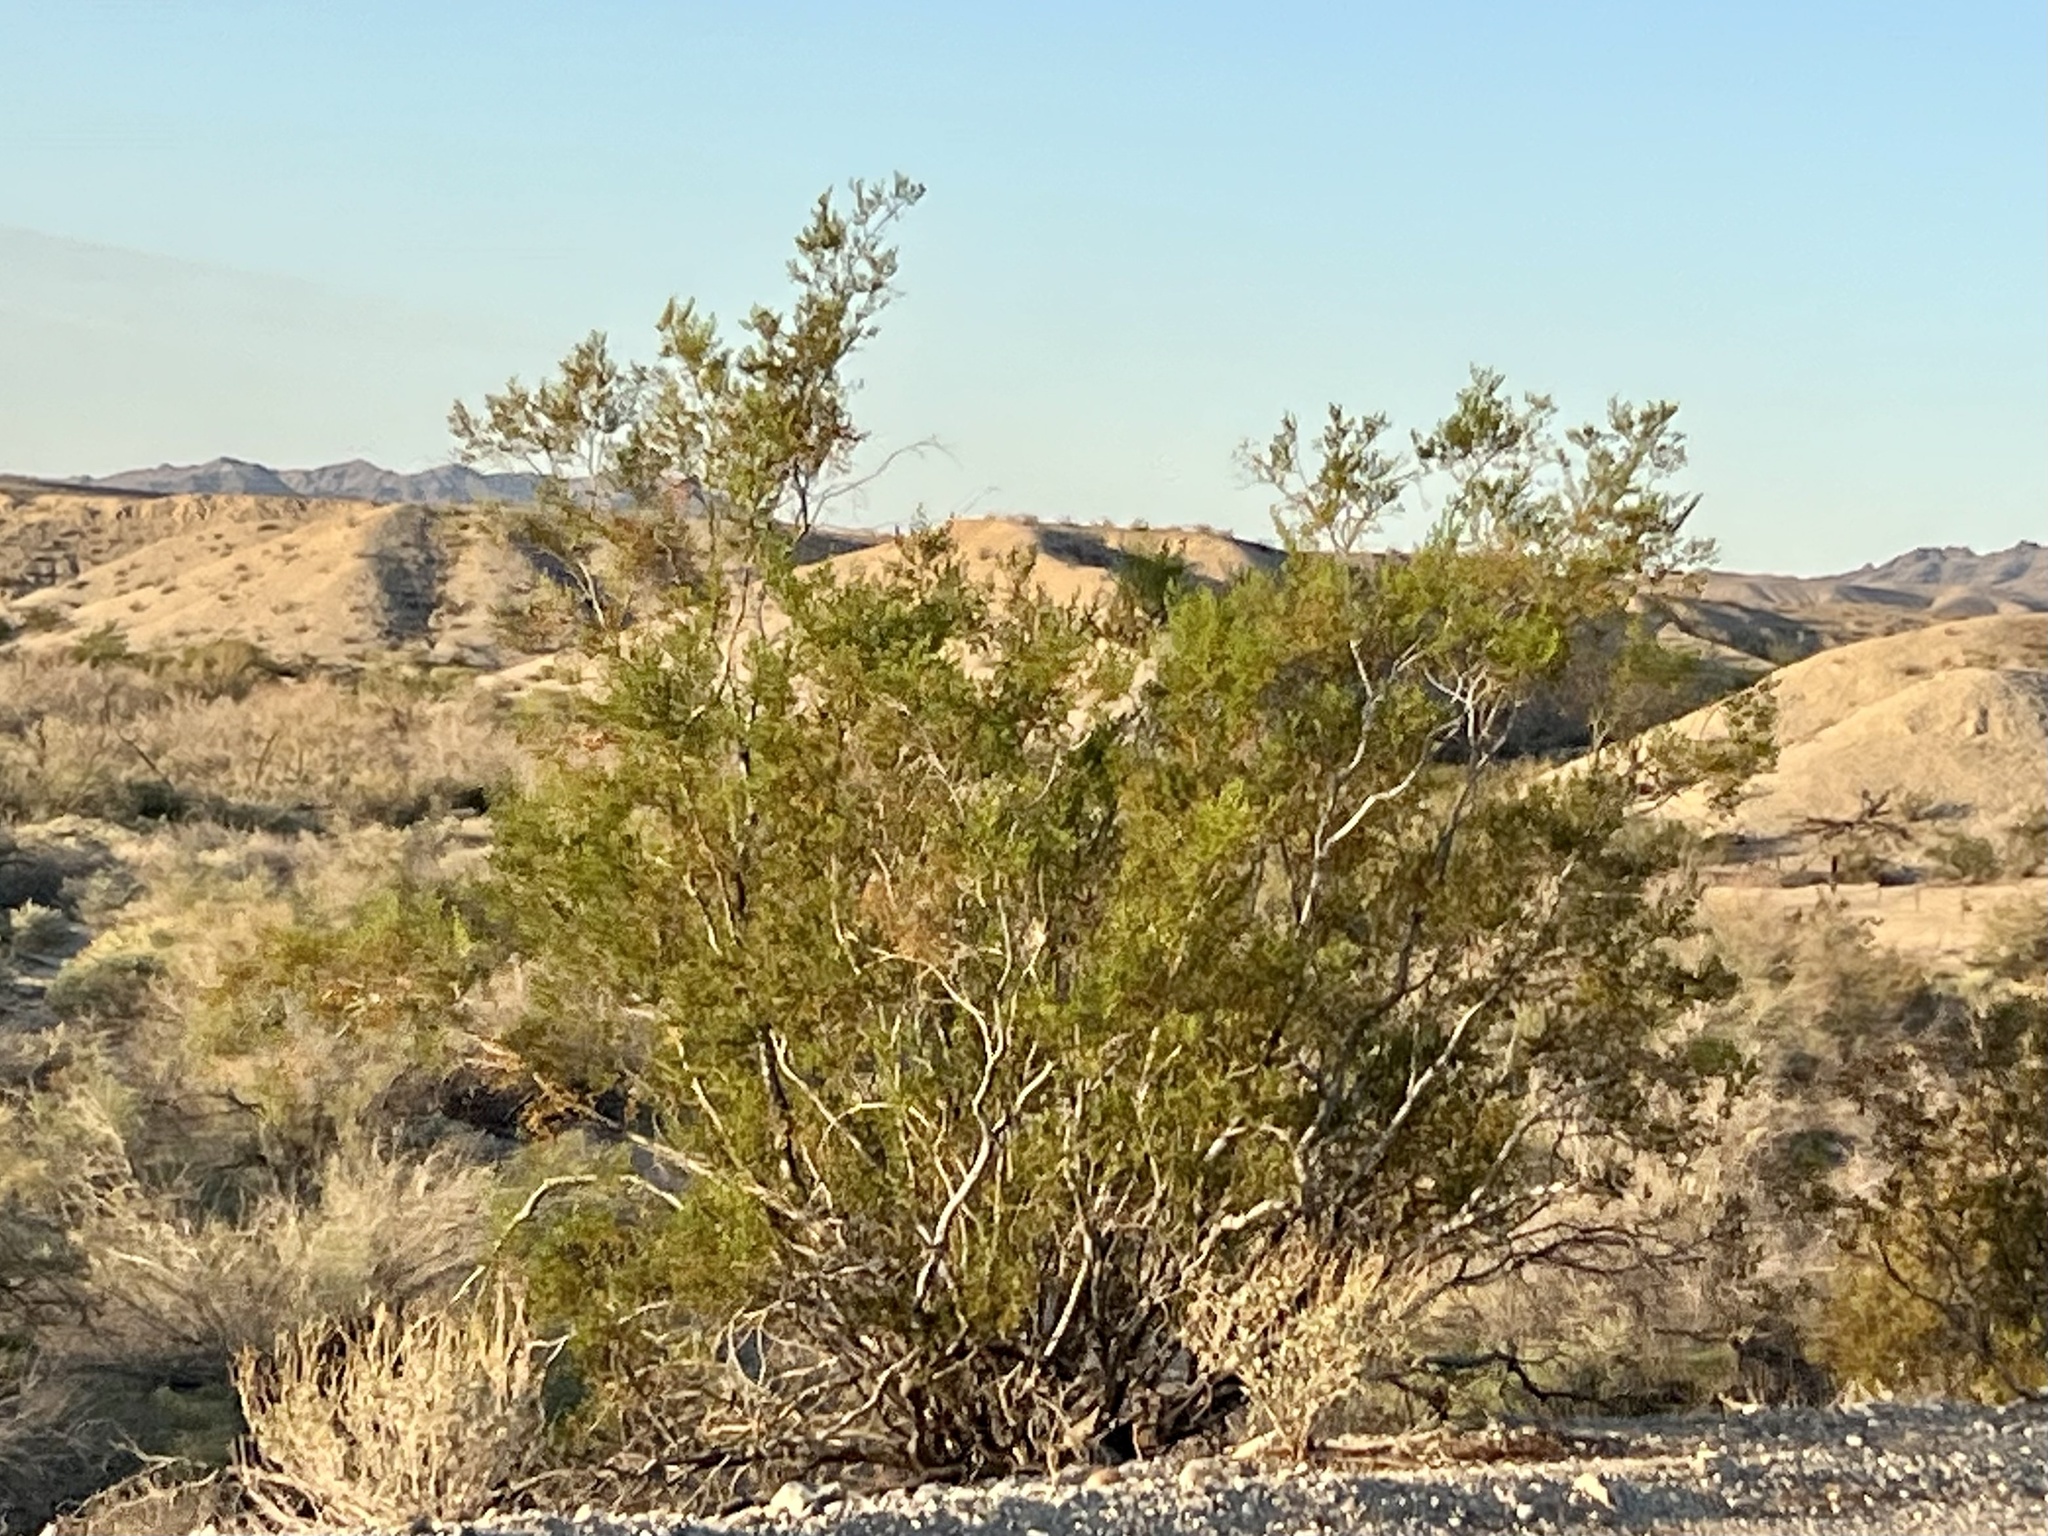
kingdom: Plantae
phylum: Tracheophyta
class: Magnoliopsida
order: Zygophyllales
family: Zygophyllaceae
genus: Larrea
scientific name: Larrea tridentata
